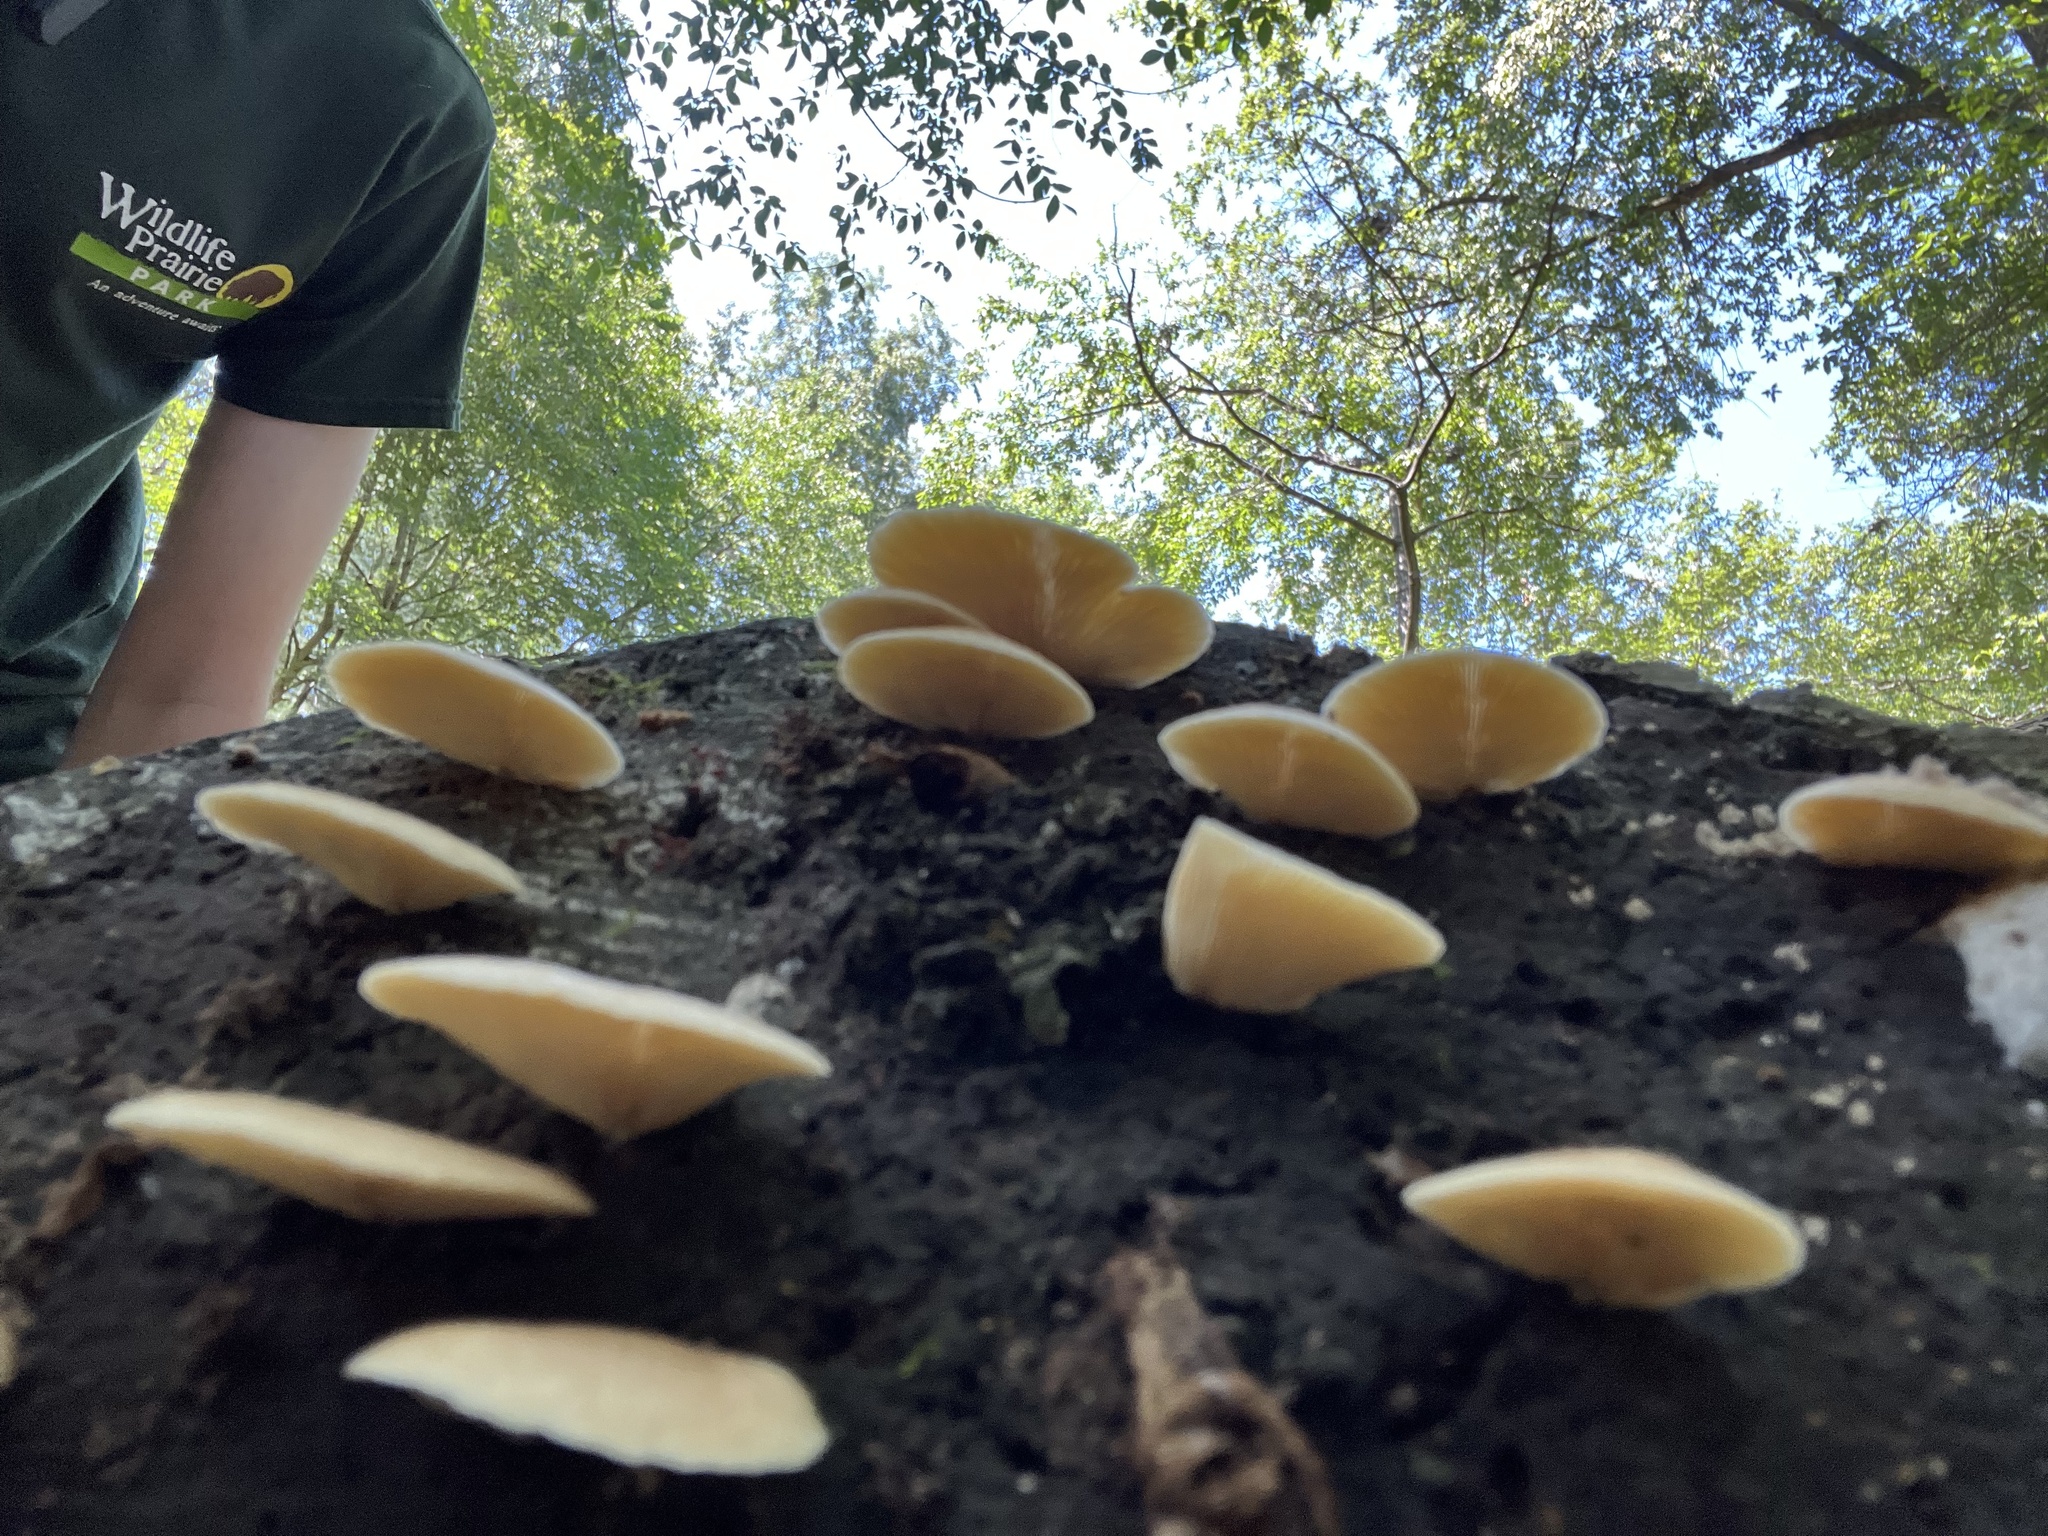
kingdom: Fungi
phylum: Basidiomycota
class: Agaricomycetes
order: Agaricales
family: Crepidotaceae
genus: Crepidotus
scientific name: Crepidotus mollis
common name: Peeling oysterling
